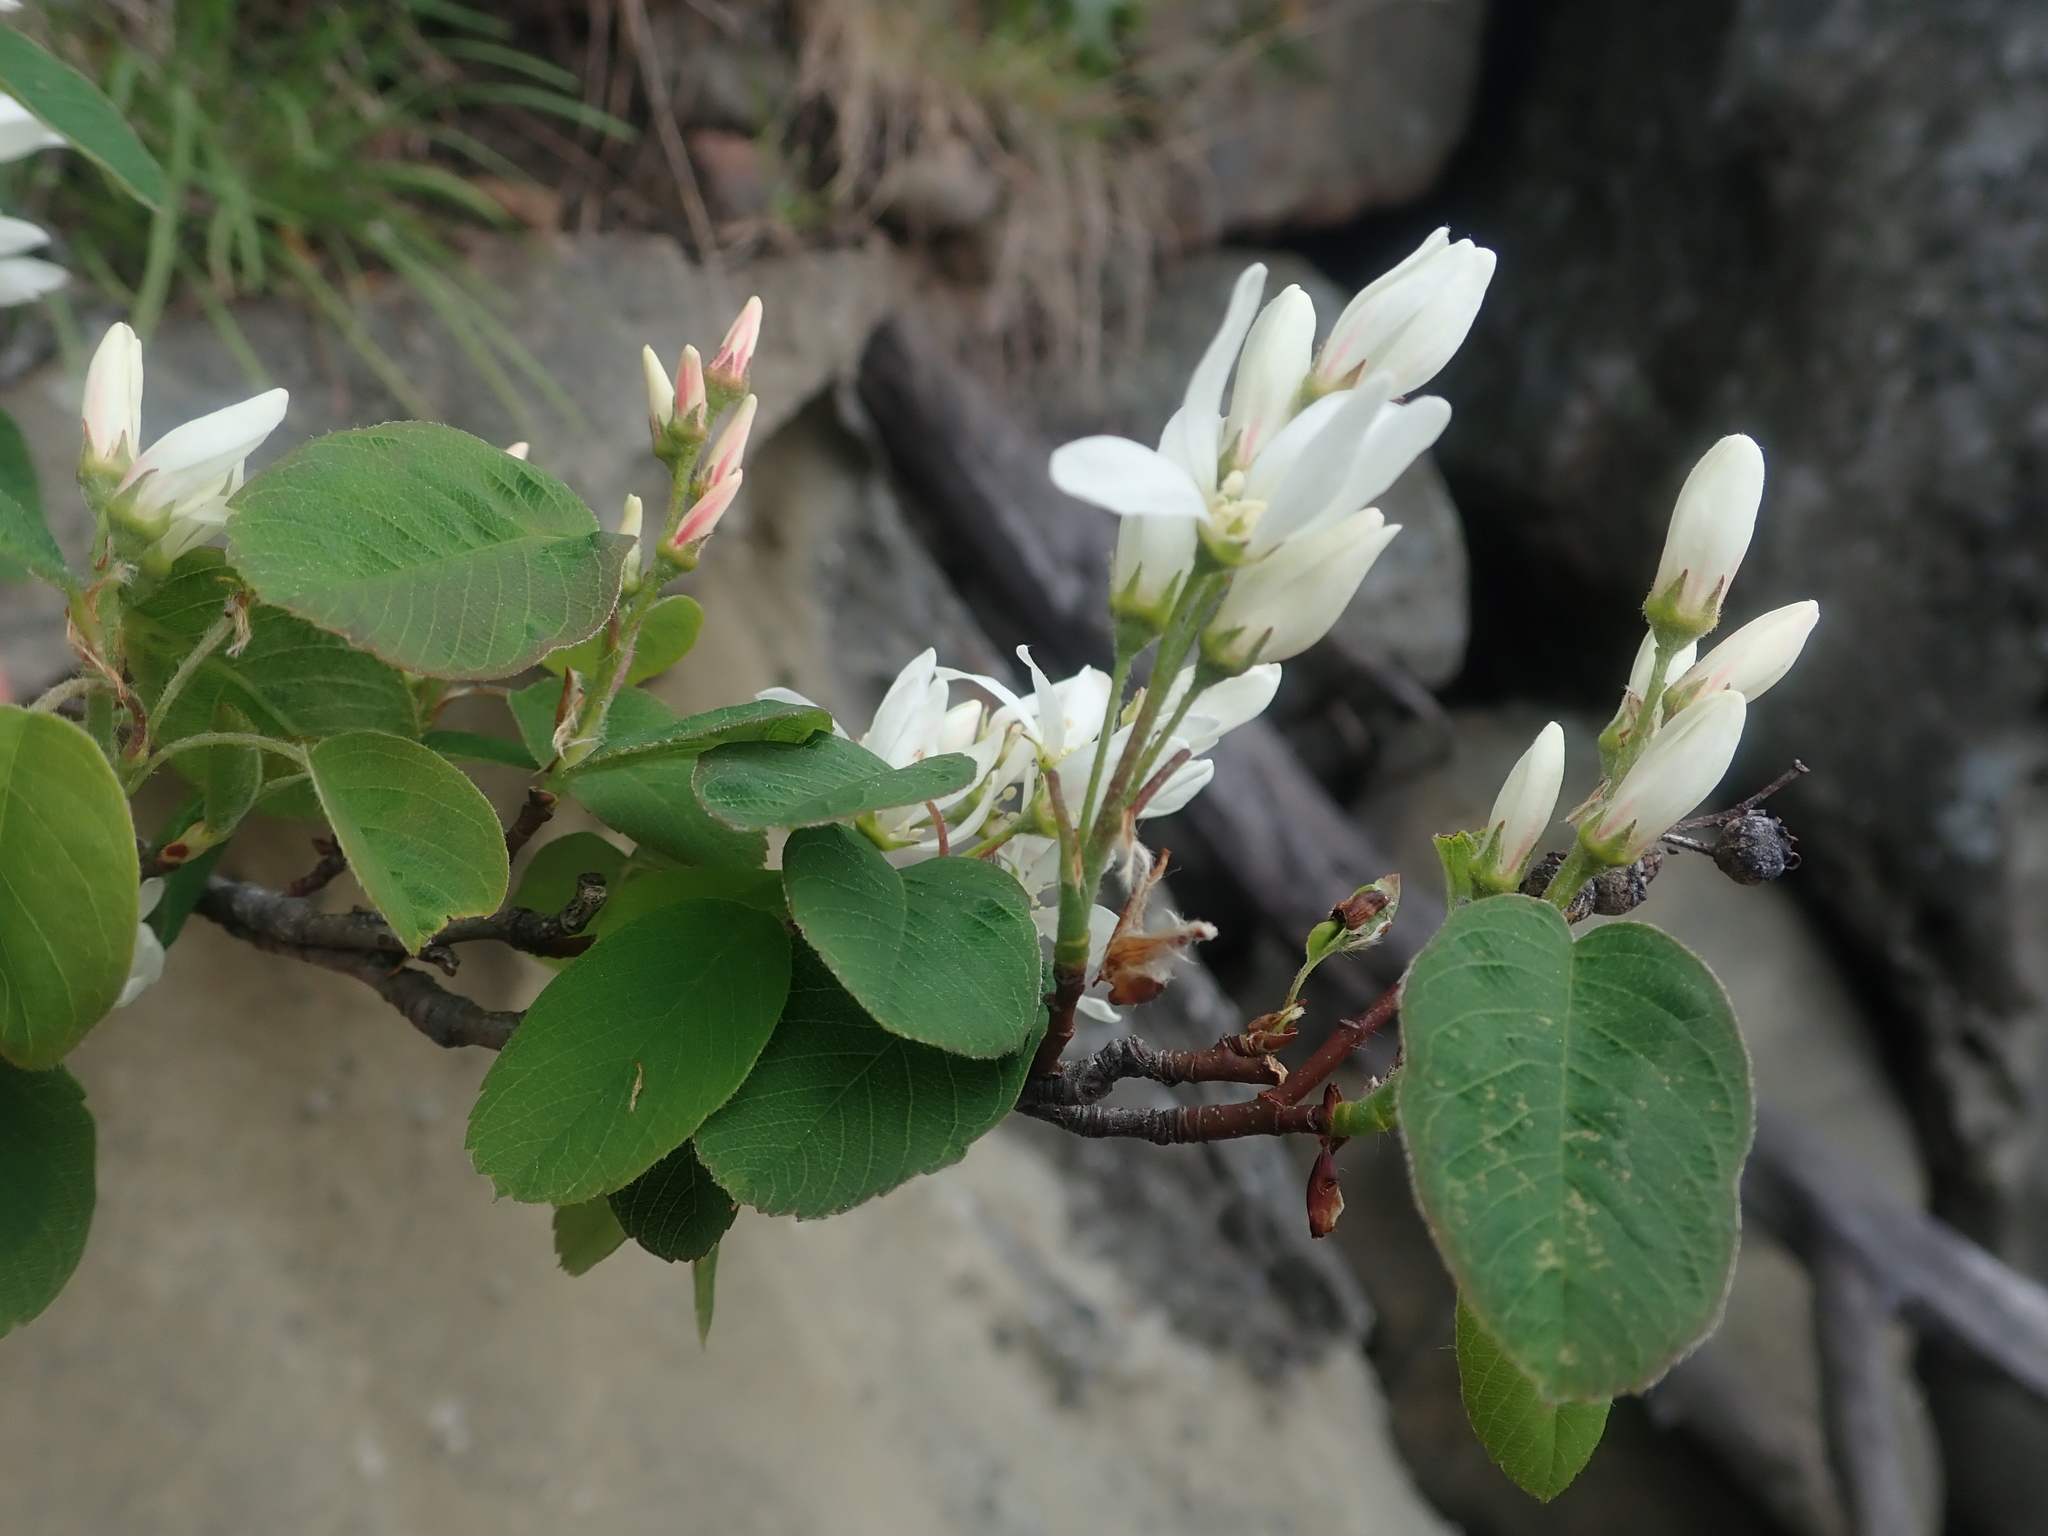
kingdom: Plantae
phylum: Tracheophyta
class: Magnoliopsida
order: Rosales
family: Rosaceae
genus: Amelanchier
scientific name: Amelanchier alnifolia
